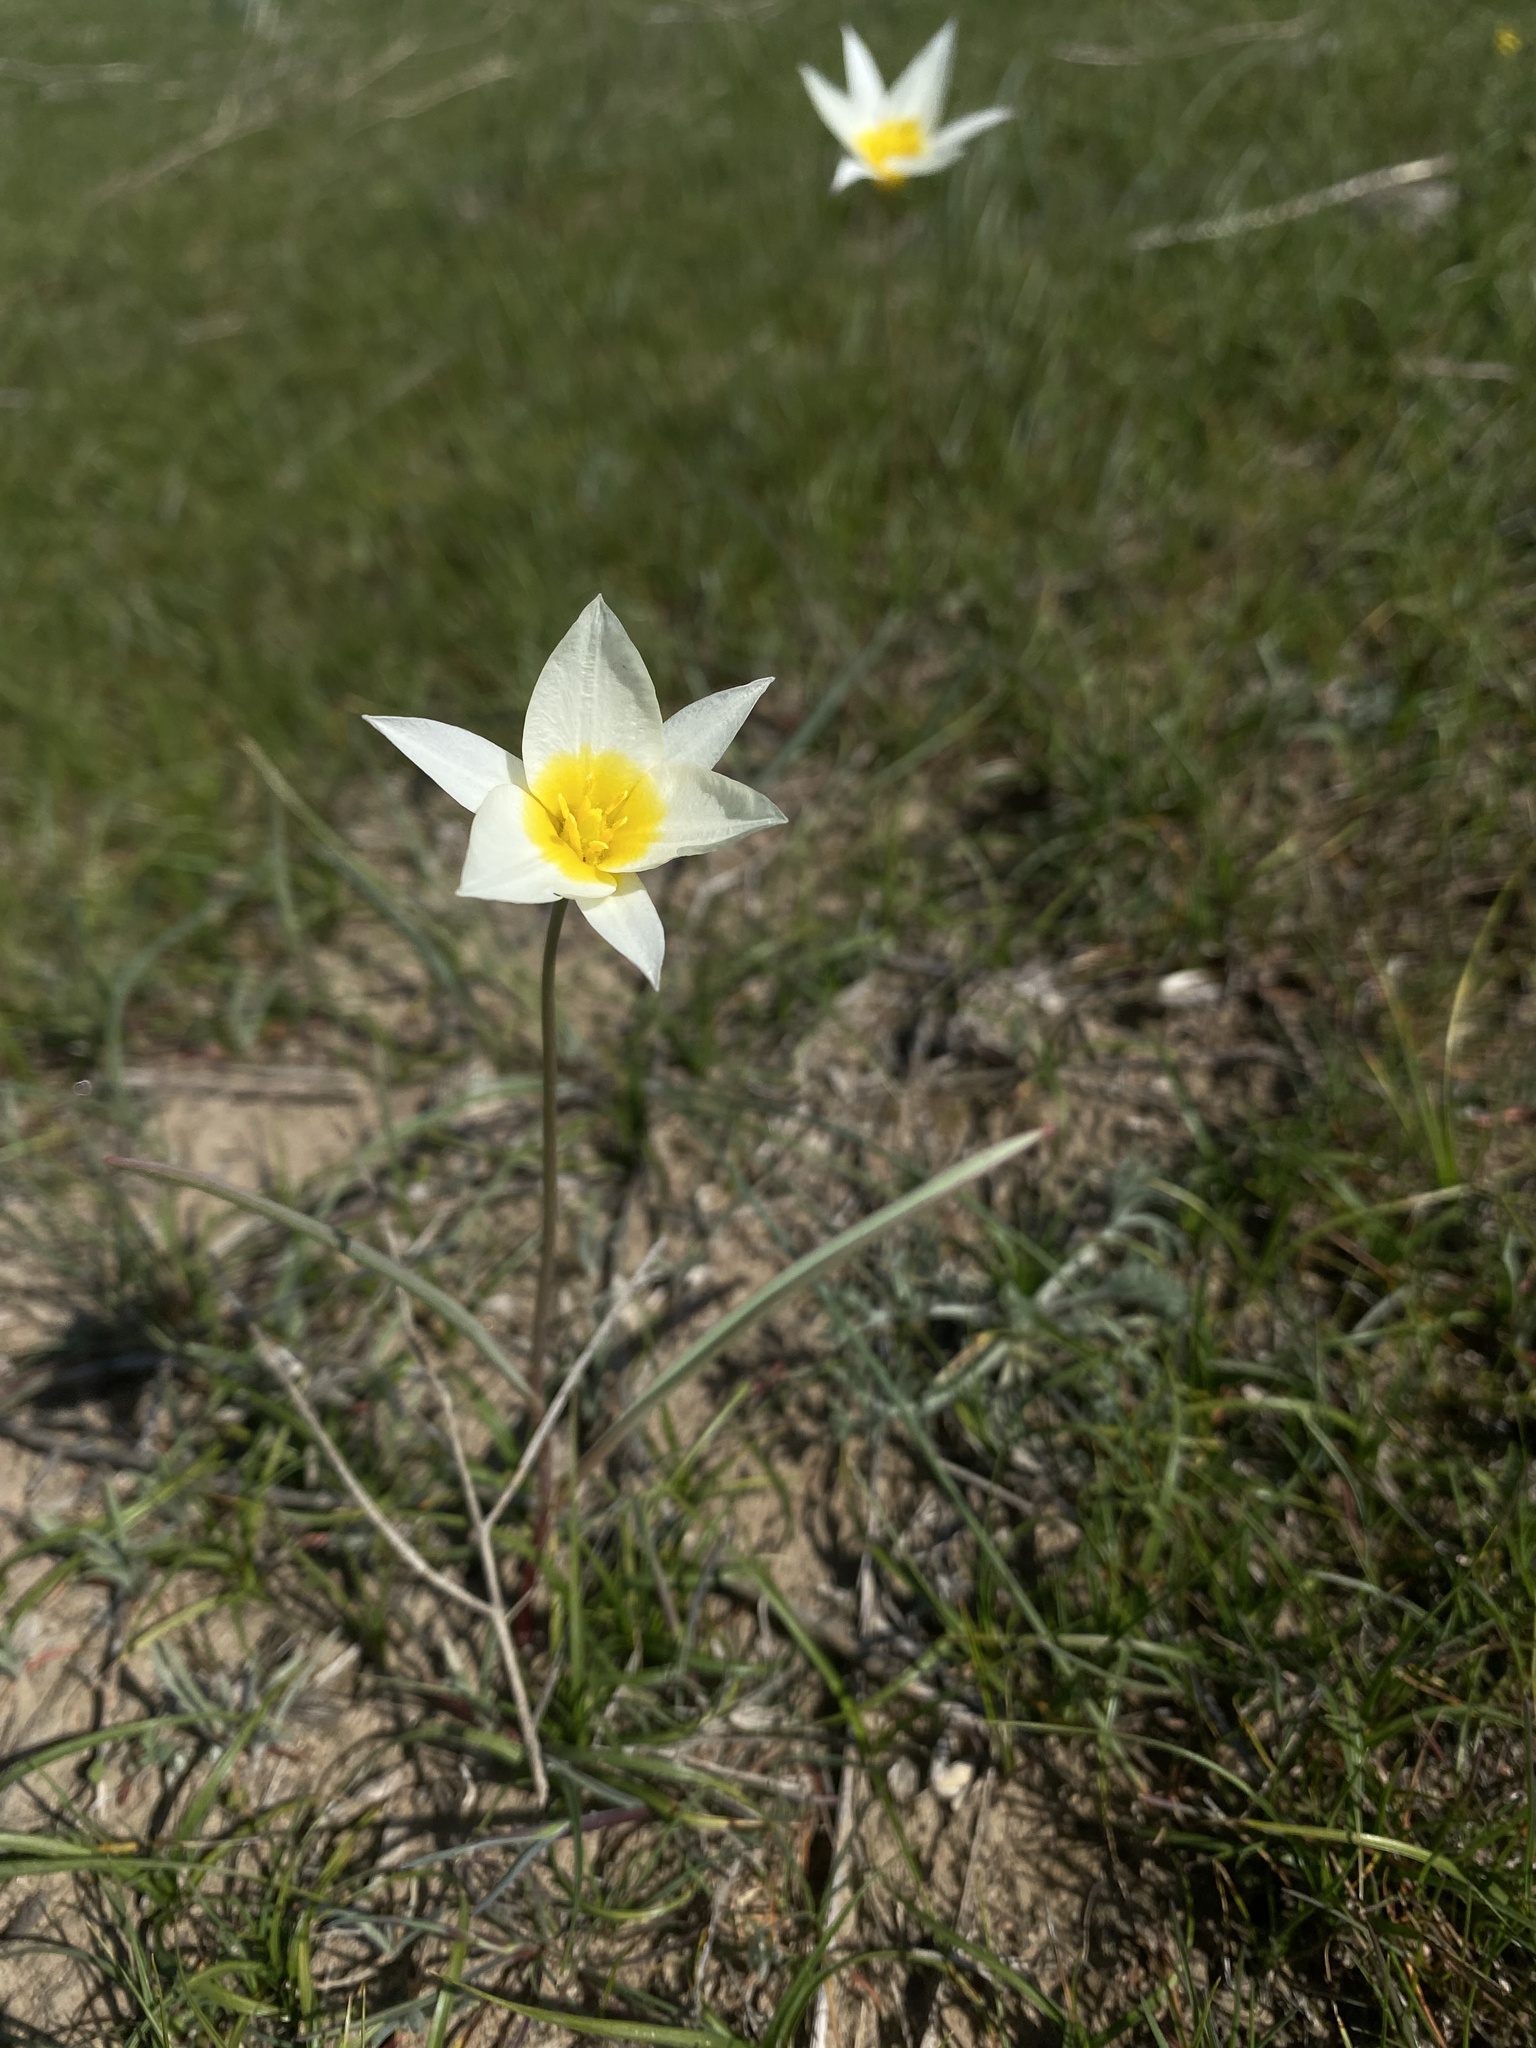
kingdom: Plantae
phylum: Tracheophyta
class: Liliopsida
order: Liliales
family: Liliaceae
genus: Tulipa
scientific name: Tulipa biflora
